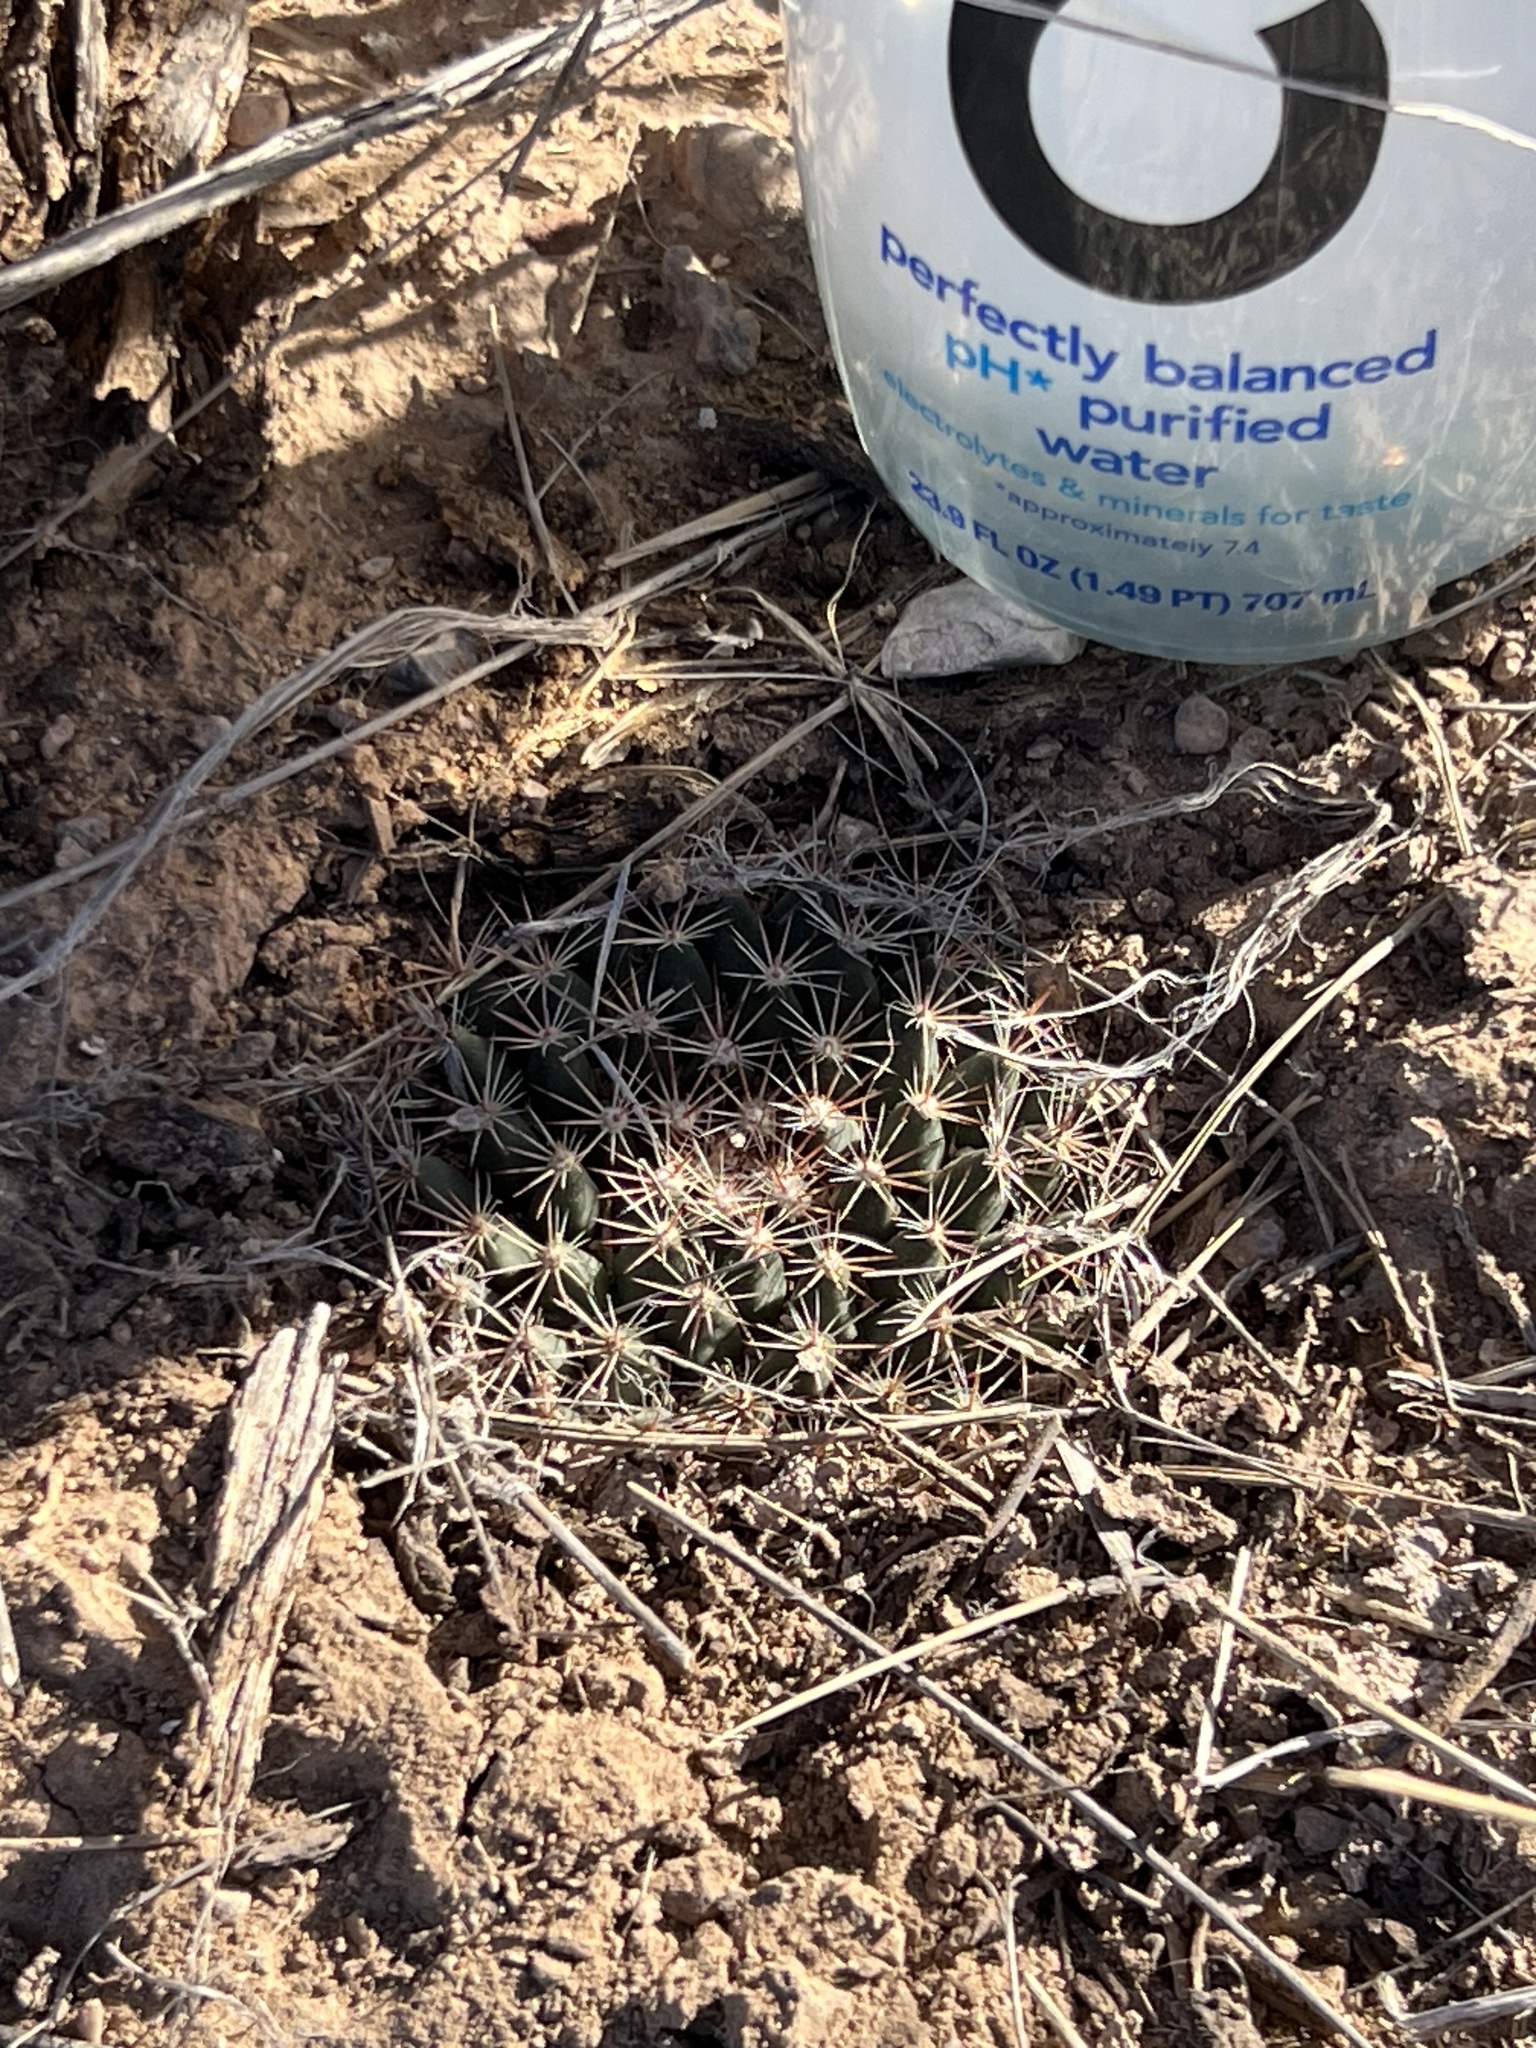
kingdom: Plantae
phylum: Tracheophyta
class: Magnoliopsida
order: Caryophyllales
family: Cactaceae
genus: Mammillaria
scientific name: Mammillaria heyderi
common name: Little nipple cactus
